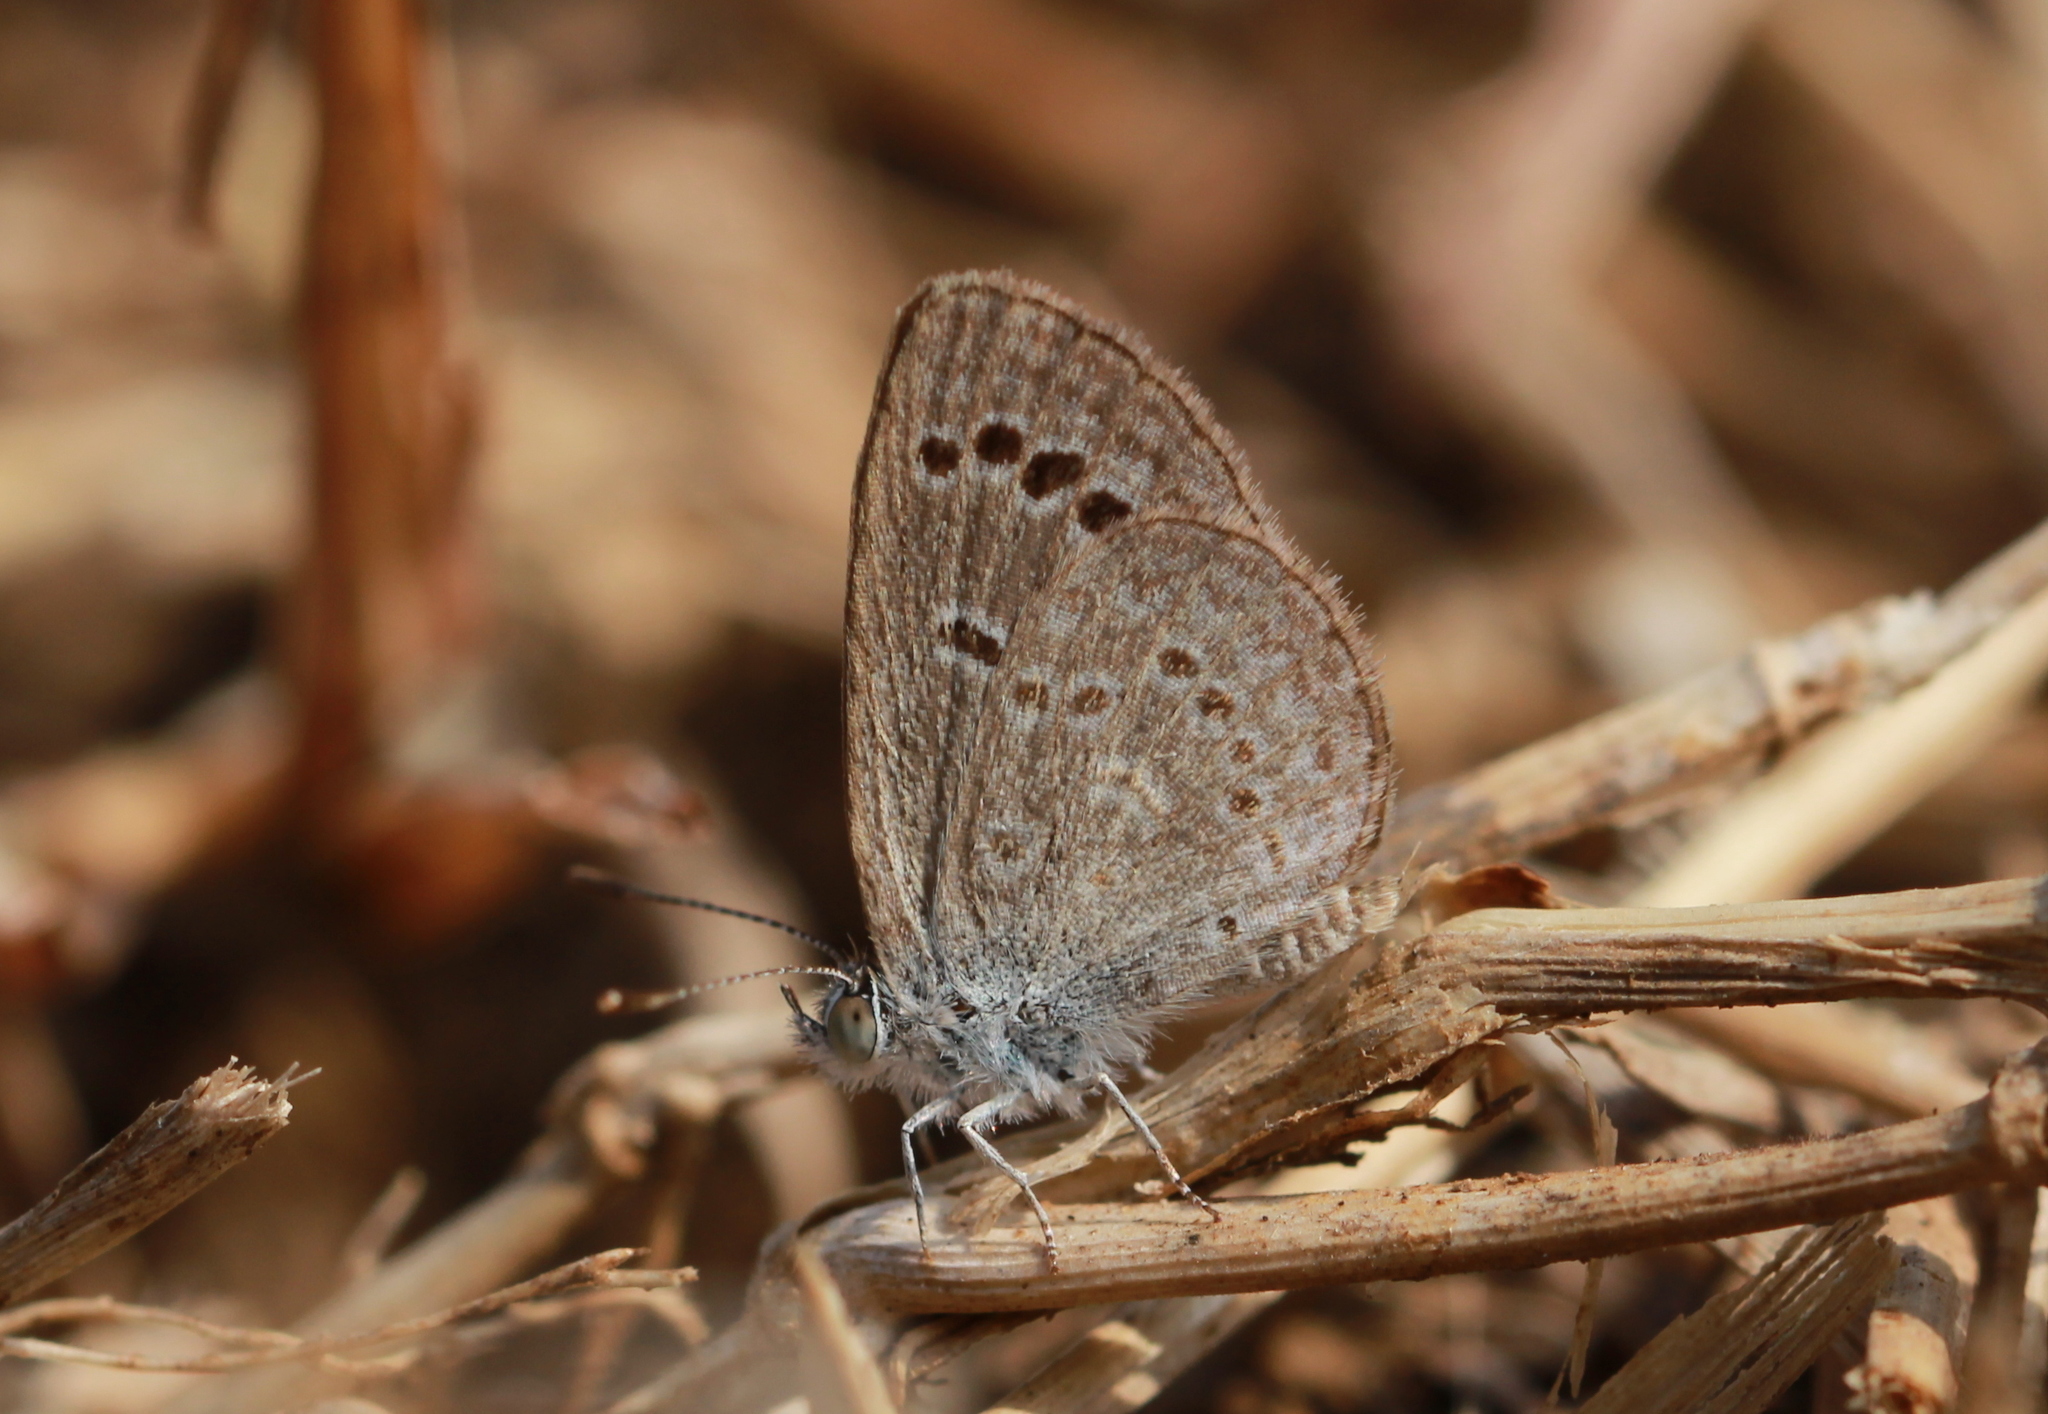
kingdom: Animalia
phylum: Arthropoda
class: Insecta
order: Lepidoptera
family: Lycaenidae
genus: Zizina
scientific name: Zizina otis
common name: Lesser grass blue
